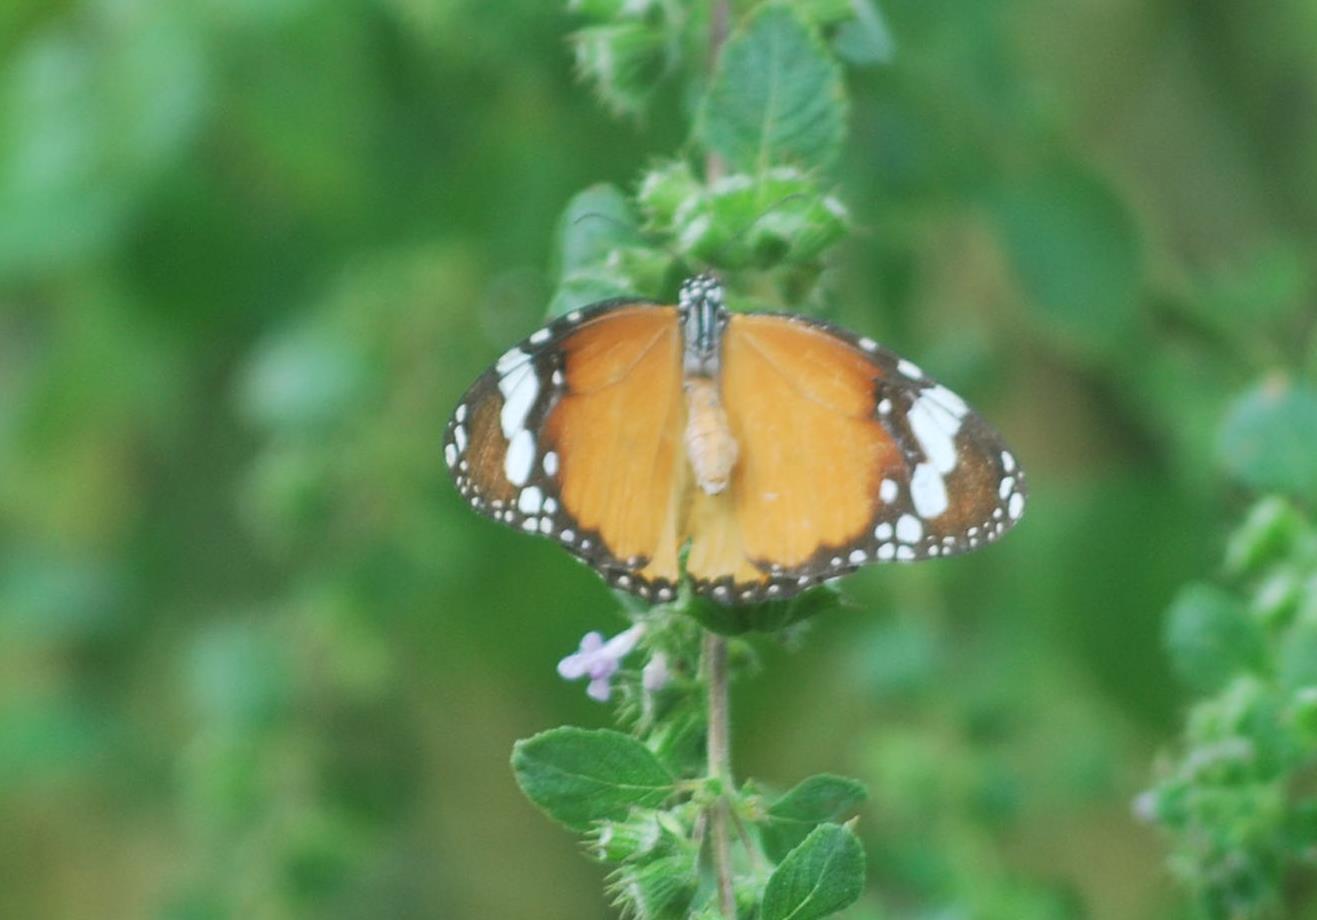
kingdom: Animalia
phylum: Arthropoda
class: Insecta
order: Lepidoptera
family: Nymphalidae
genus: Danaus
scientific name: Danaus chrysippus
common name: Plain tiger
